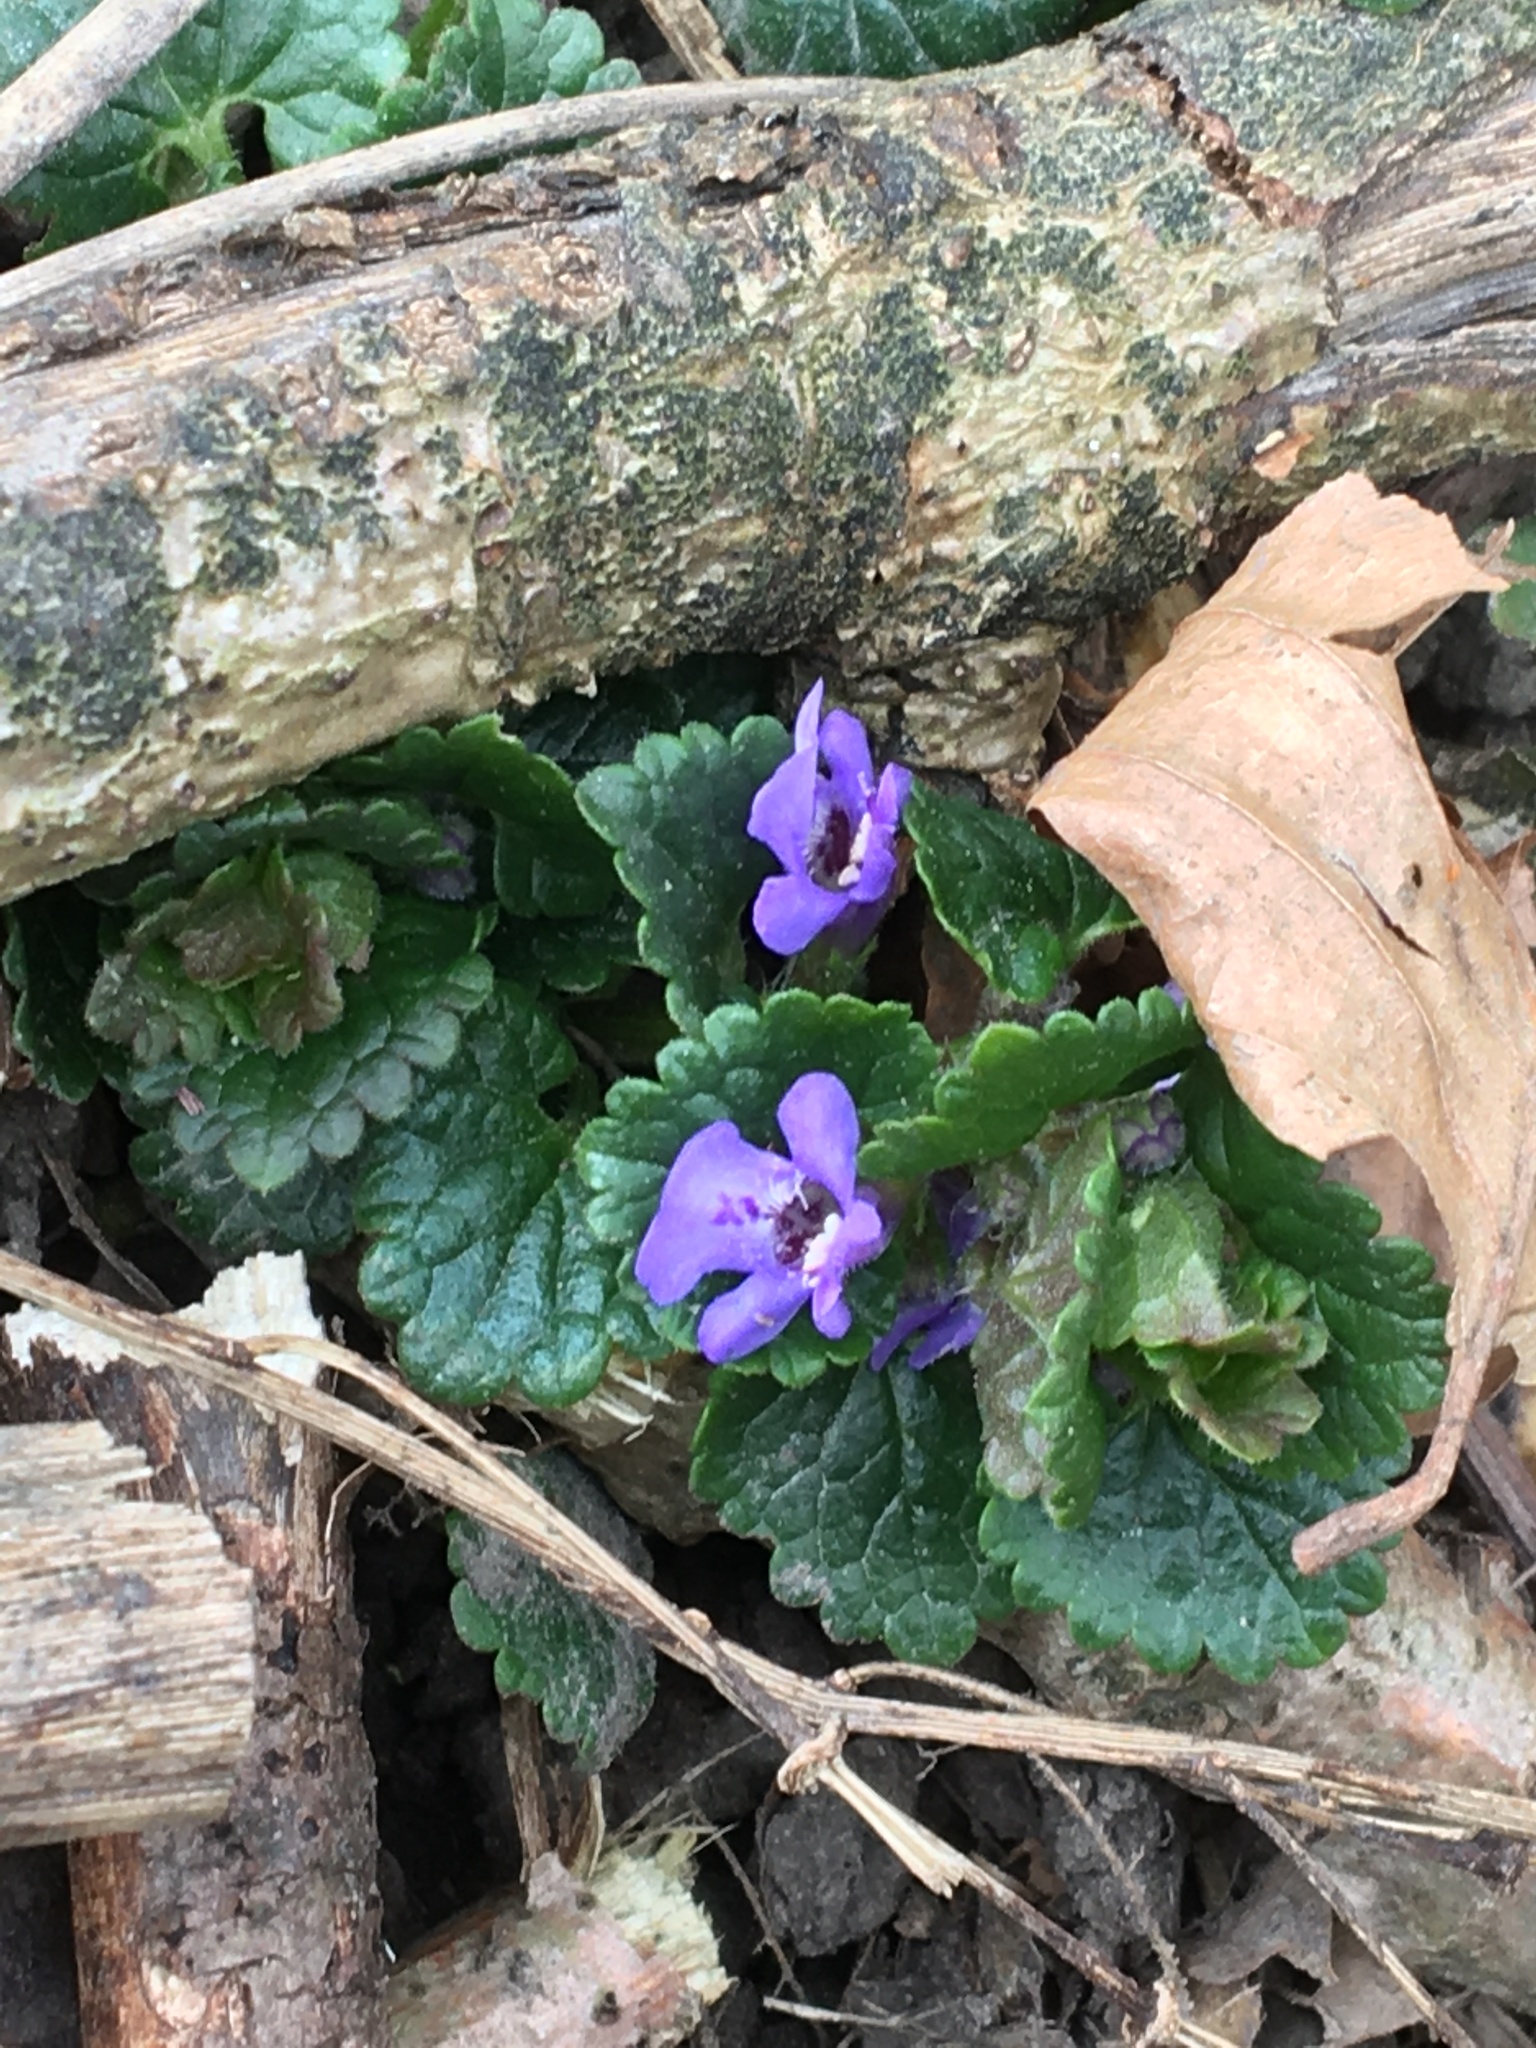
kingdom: Plantae
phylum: Tracheophyta
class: Magnoliopsida
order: Lamiales
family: Lamiaceae
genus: Glechoma
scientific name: Glechoma hederacea
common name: Ground ivy
